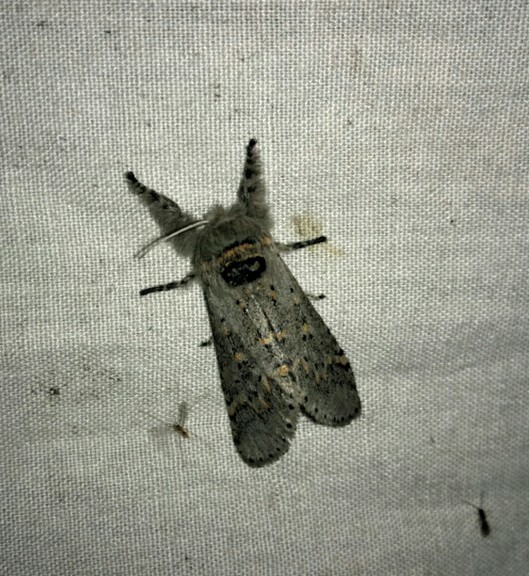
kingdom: Animalia
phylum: Arthropoda
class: Insecta
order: Lepidoptera
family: Notodontidae
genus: Furcula
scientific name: Furcula
